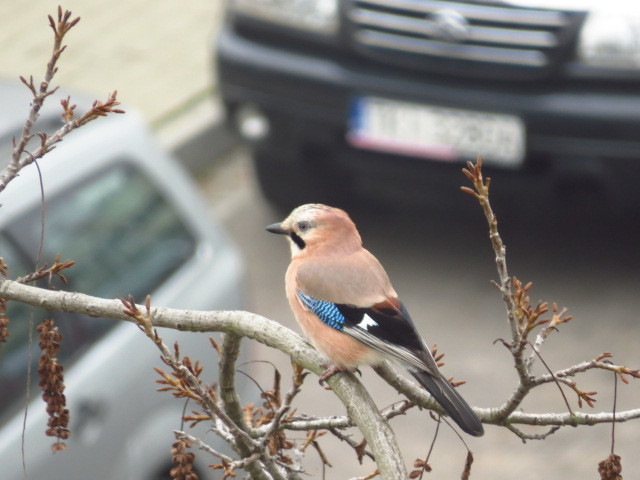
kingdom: Animalia
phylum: Chordata
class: Aves
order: Passeriformes
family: Corvidae
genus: Garrulus
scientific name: Garrulus glandarius
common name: Eurasian jay
